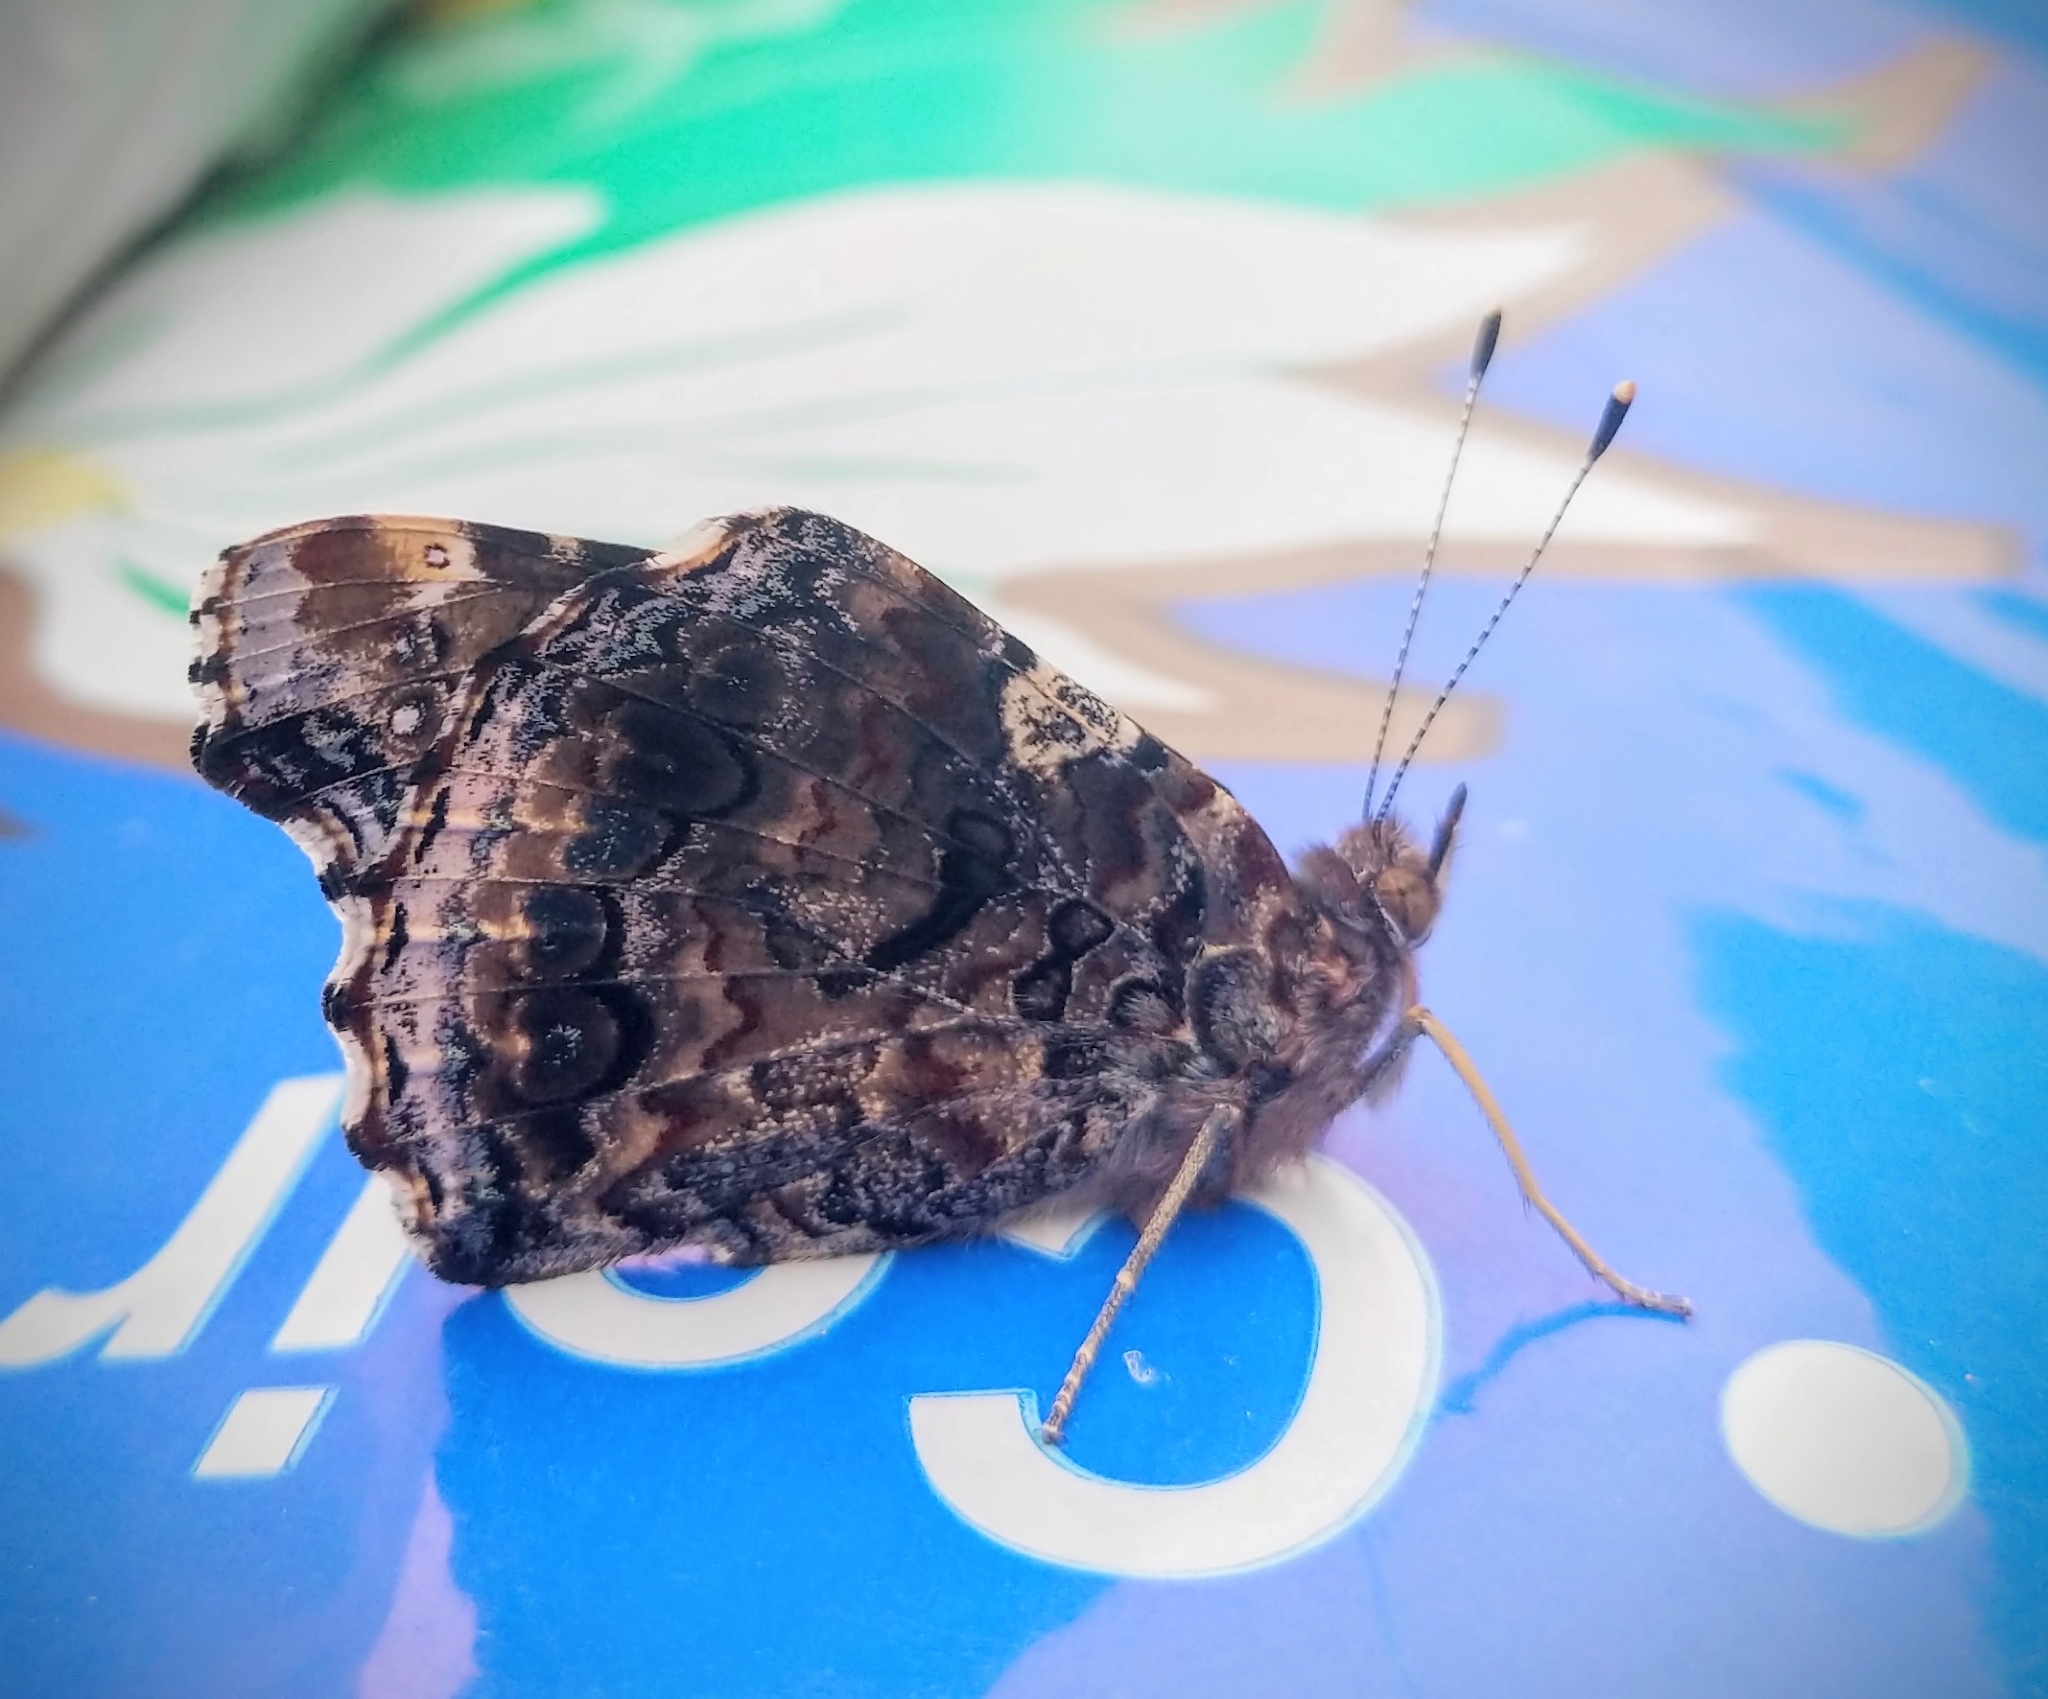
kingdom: Animalia
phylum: Arthropoda
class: Insecta
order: Lepidoptera
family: Nymphalidae
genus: Vanessa
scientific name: Vanessa atalanta
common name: Red admiral
